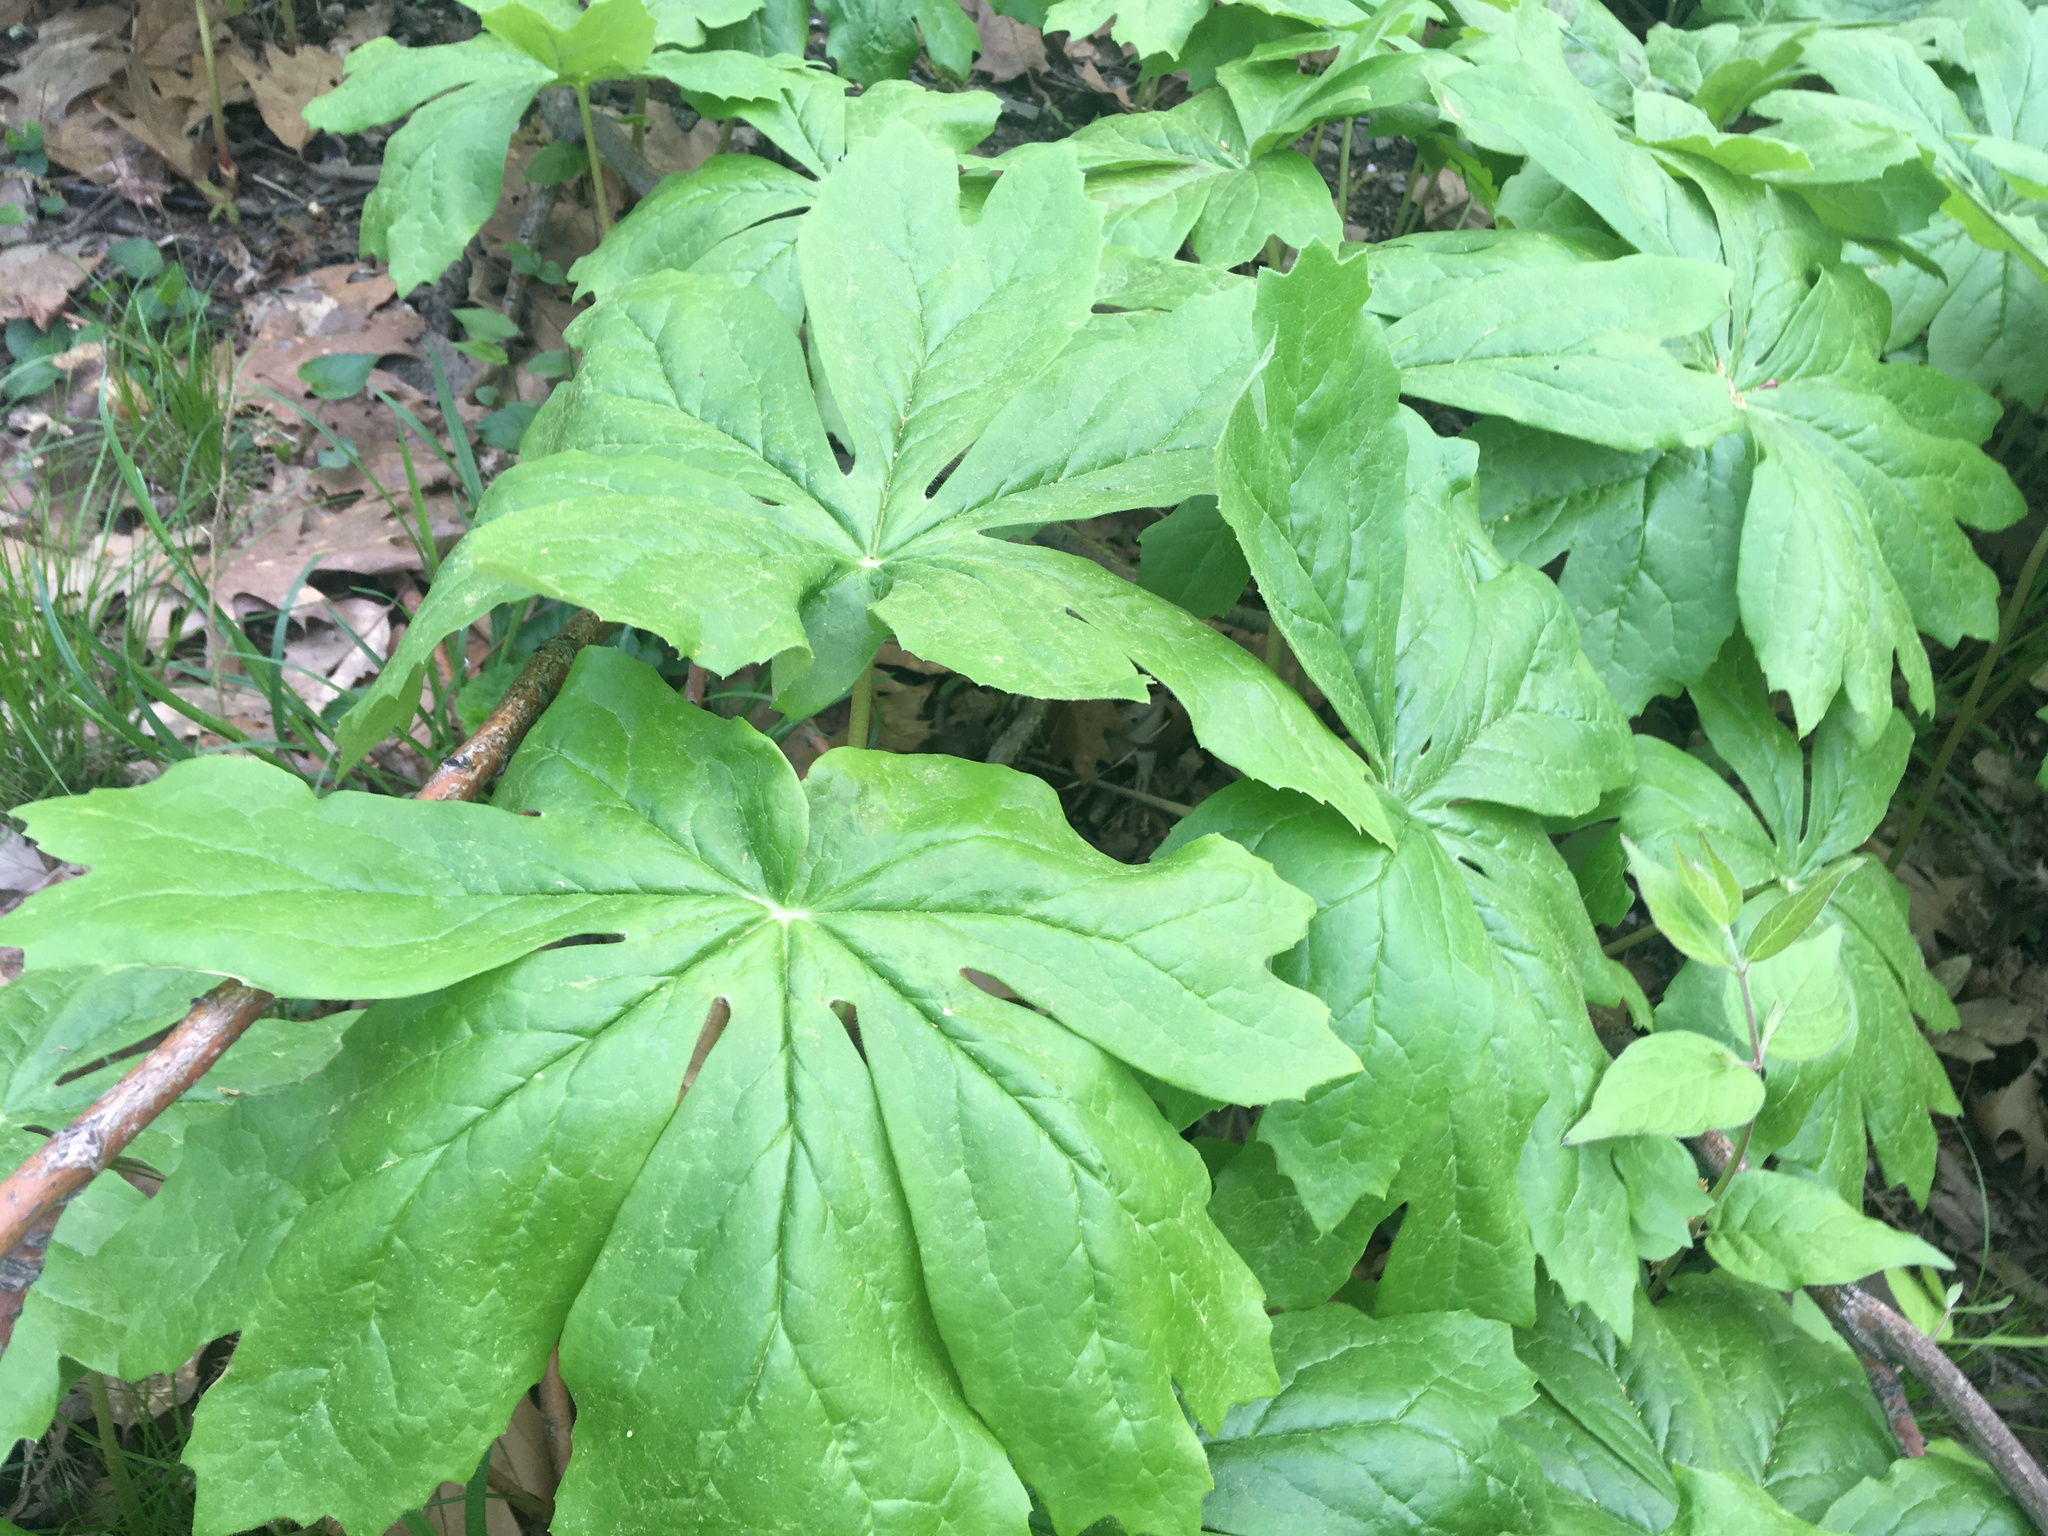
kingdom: Plantae
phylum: Tracheophyta
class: Magnoliopsida
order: Ranunculales
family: Berberidaceae
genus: Podophyllum
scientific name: Podophyllum peltatum
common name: Wild mandrake
